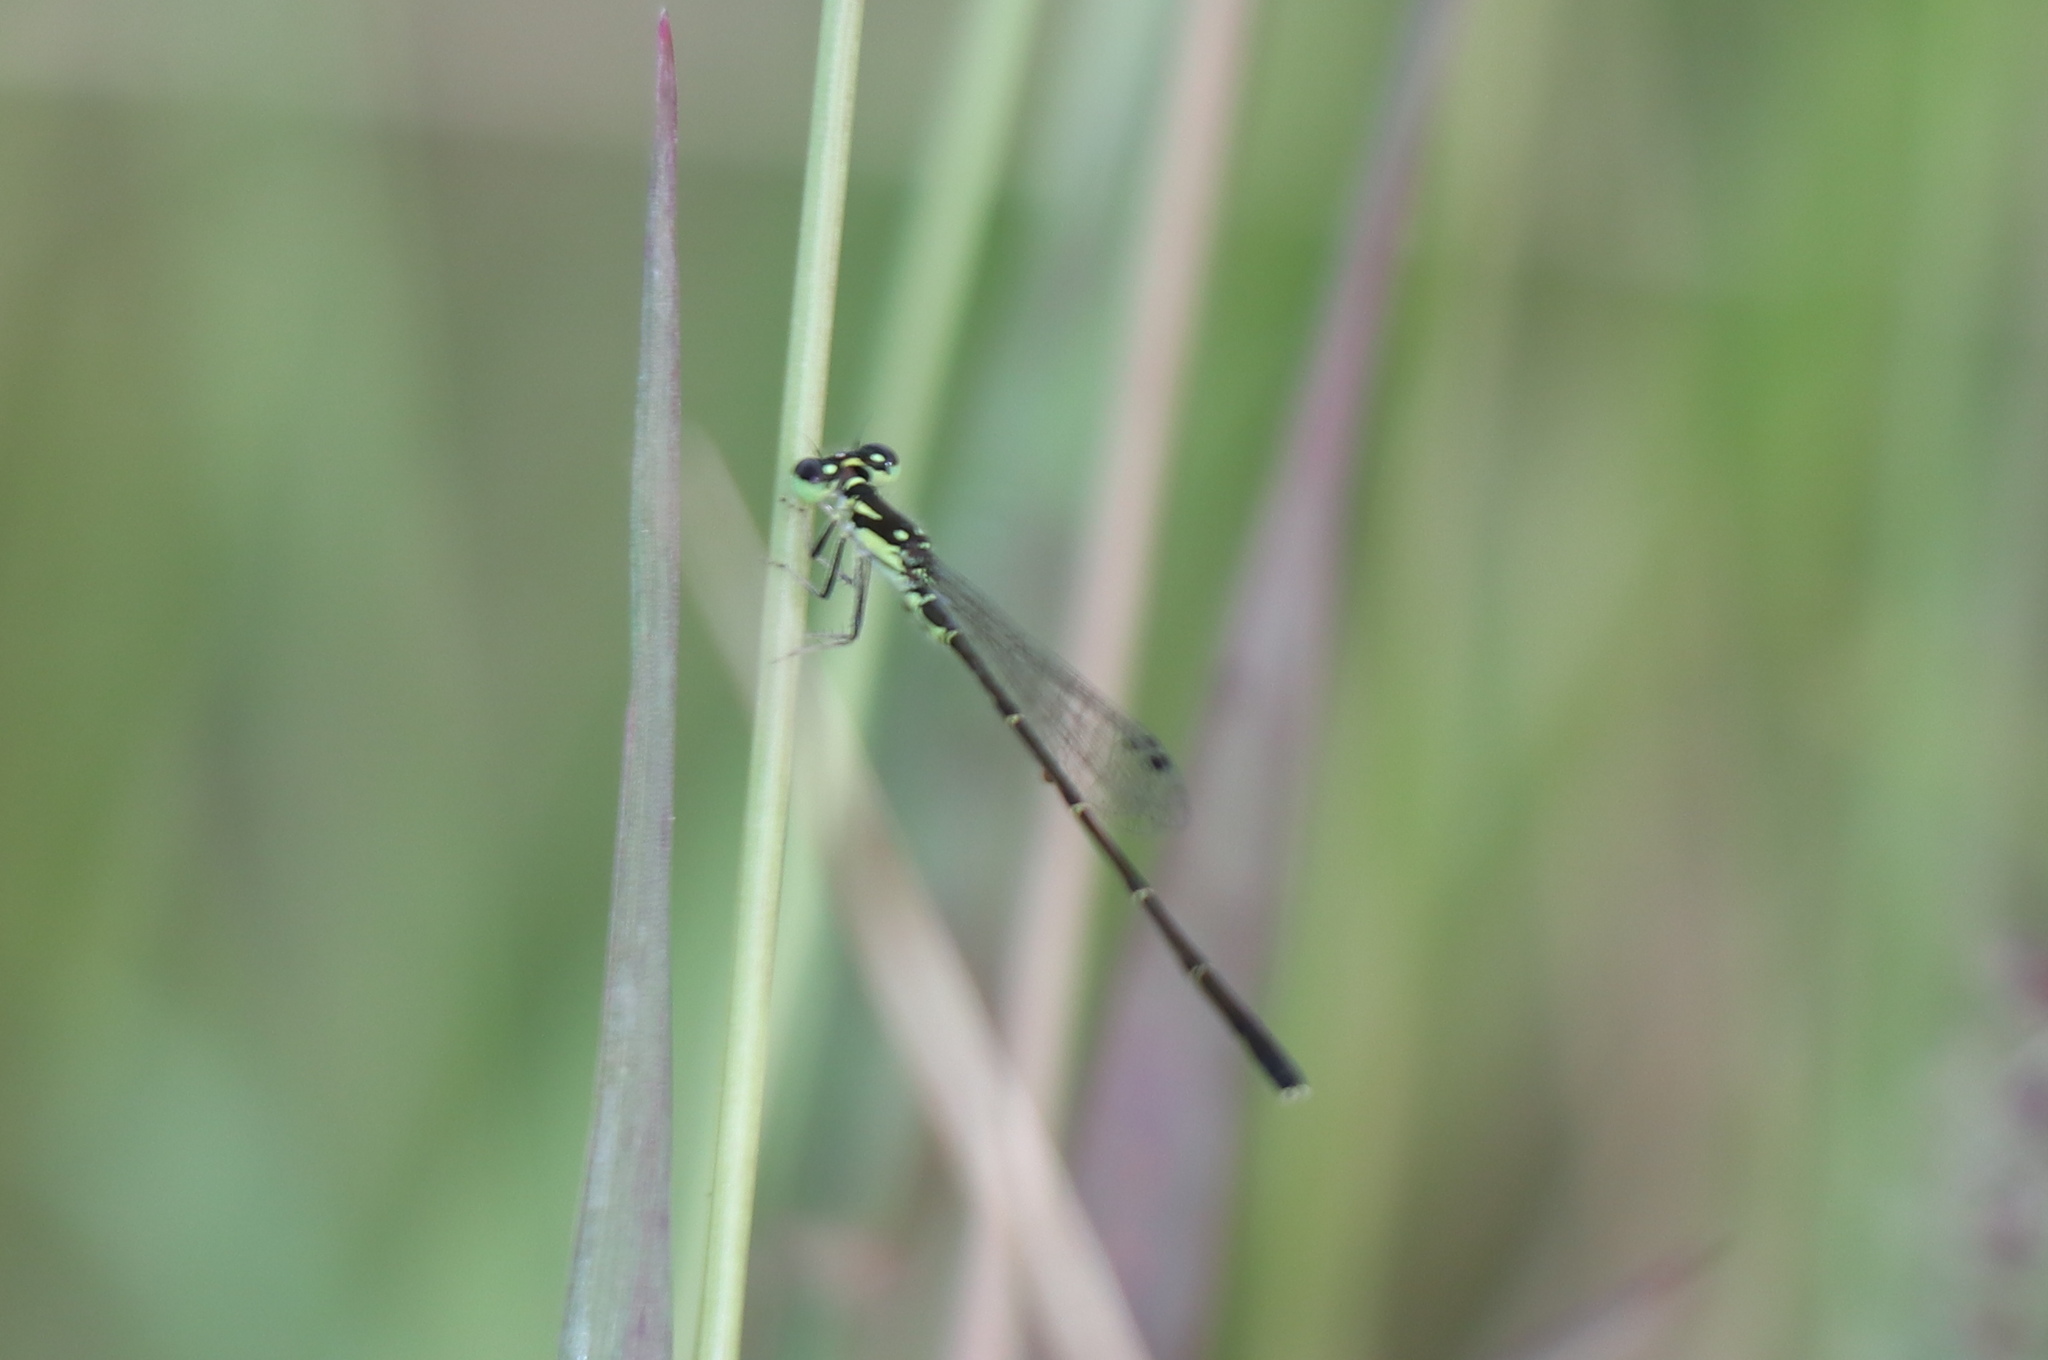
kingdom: Animalia
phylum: Arthropoda
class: Insecta
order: Odonata
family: Coenagrionidae
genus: Ischnura
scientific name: Ischnura posita
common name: Fragile forktail
